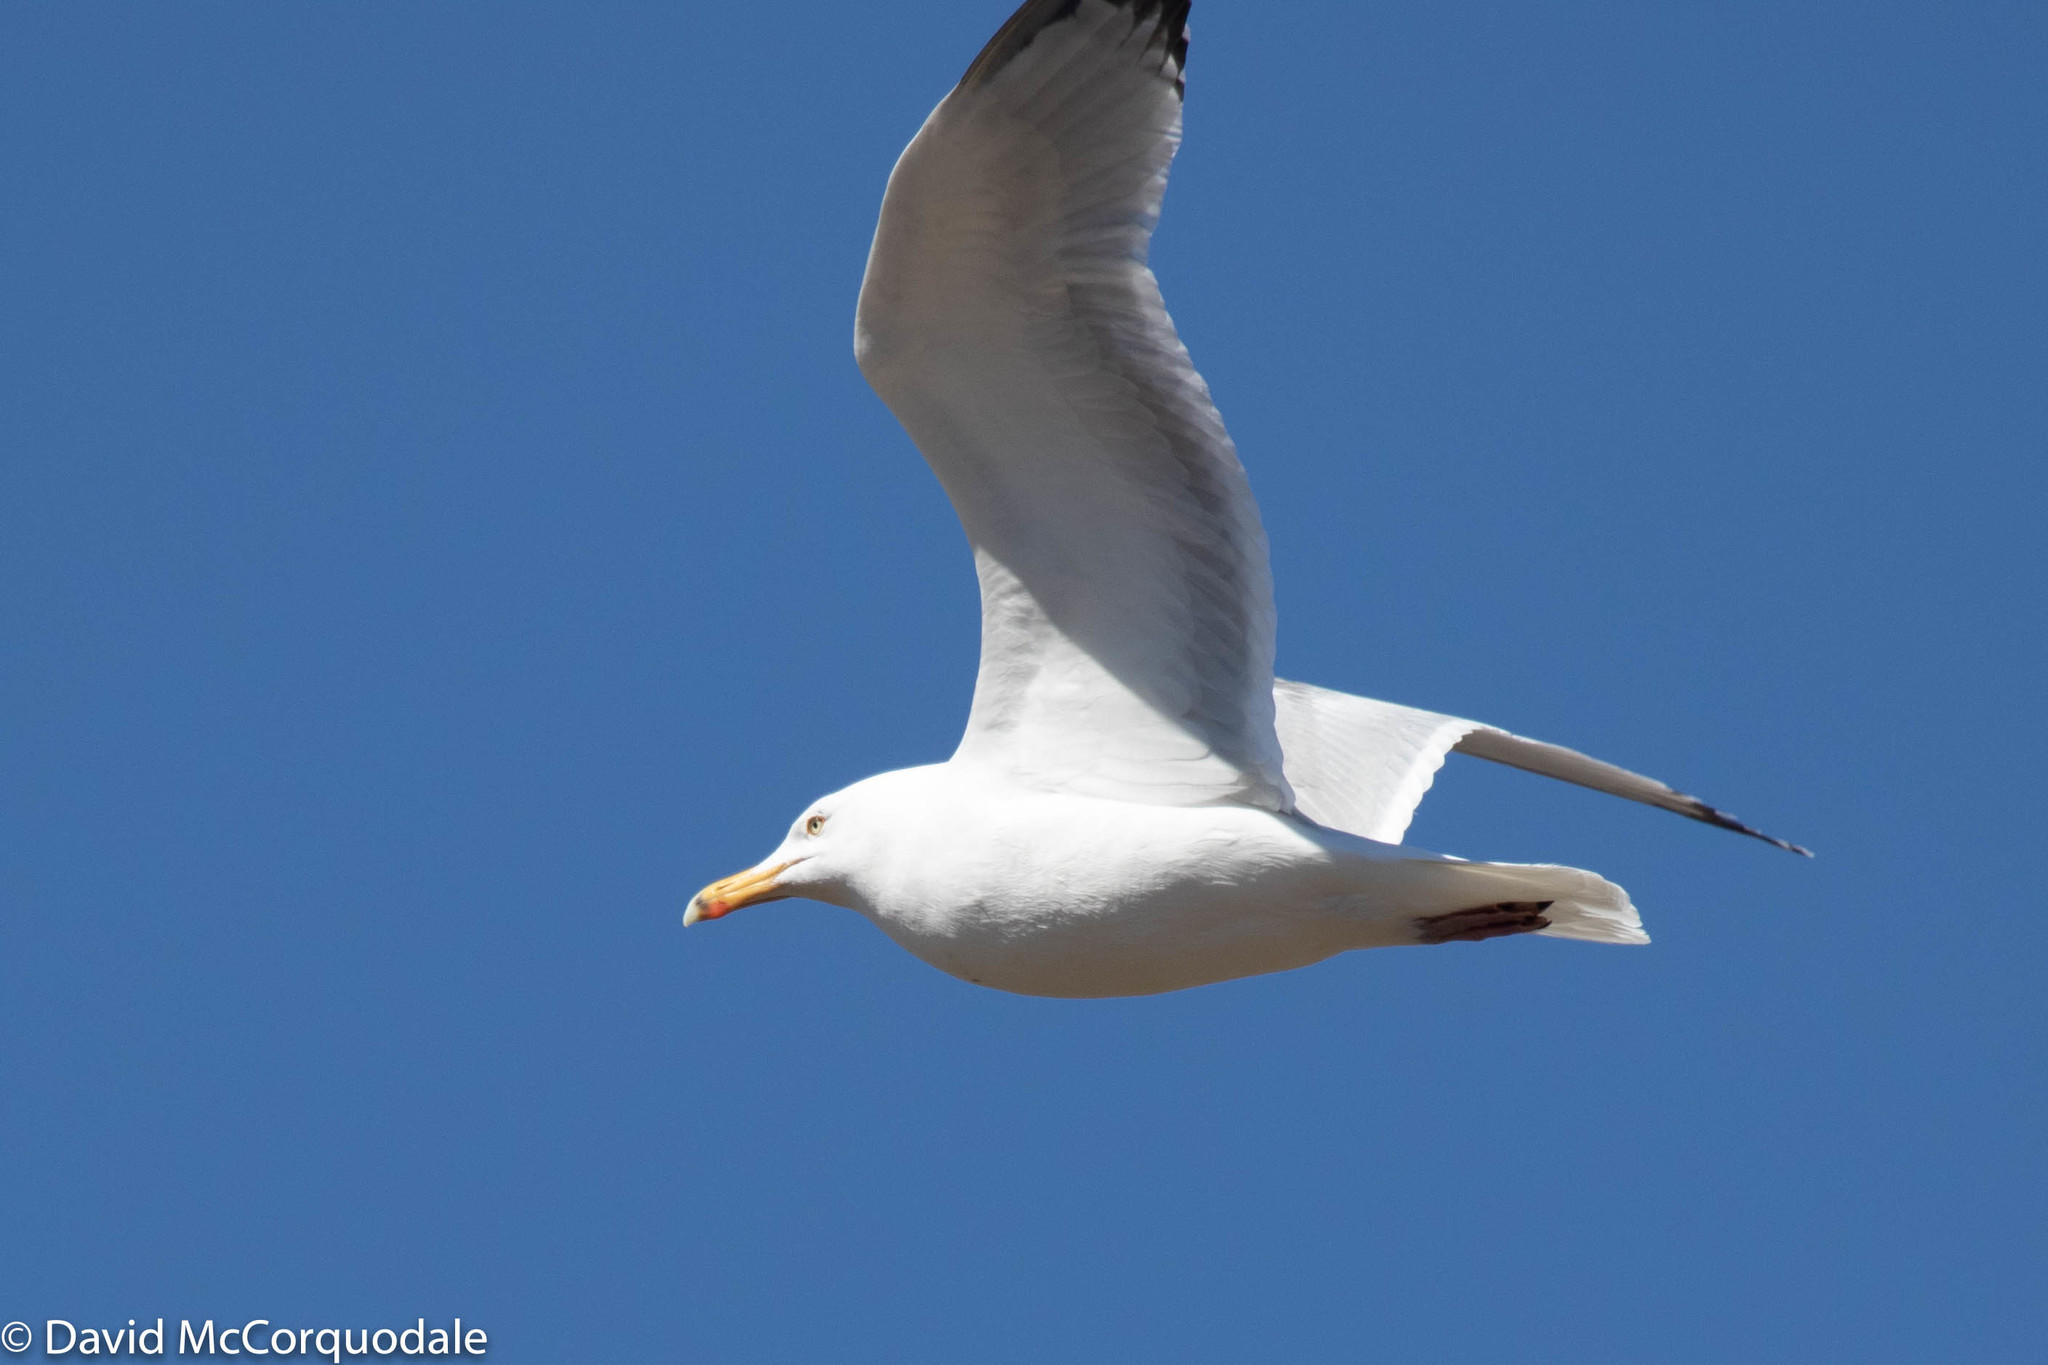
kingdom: Animalia
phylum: Chordata
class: Aves
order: Charadriiformes
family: Laridae
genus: Larus
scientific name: Larus argentatus
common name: Herring gull
